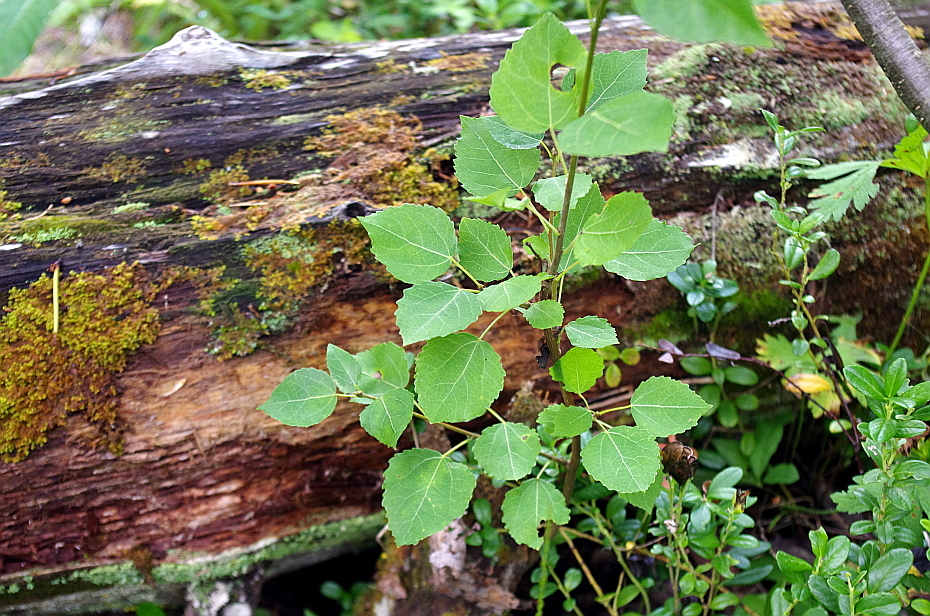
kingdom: Plantae
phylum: Tracheophyta
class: Magnoliopsida
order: Malpighiales
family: Salicaceae
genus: Populus
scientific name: Populus tremula
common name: European aspen
